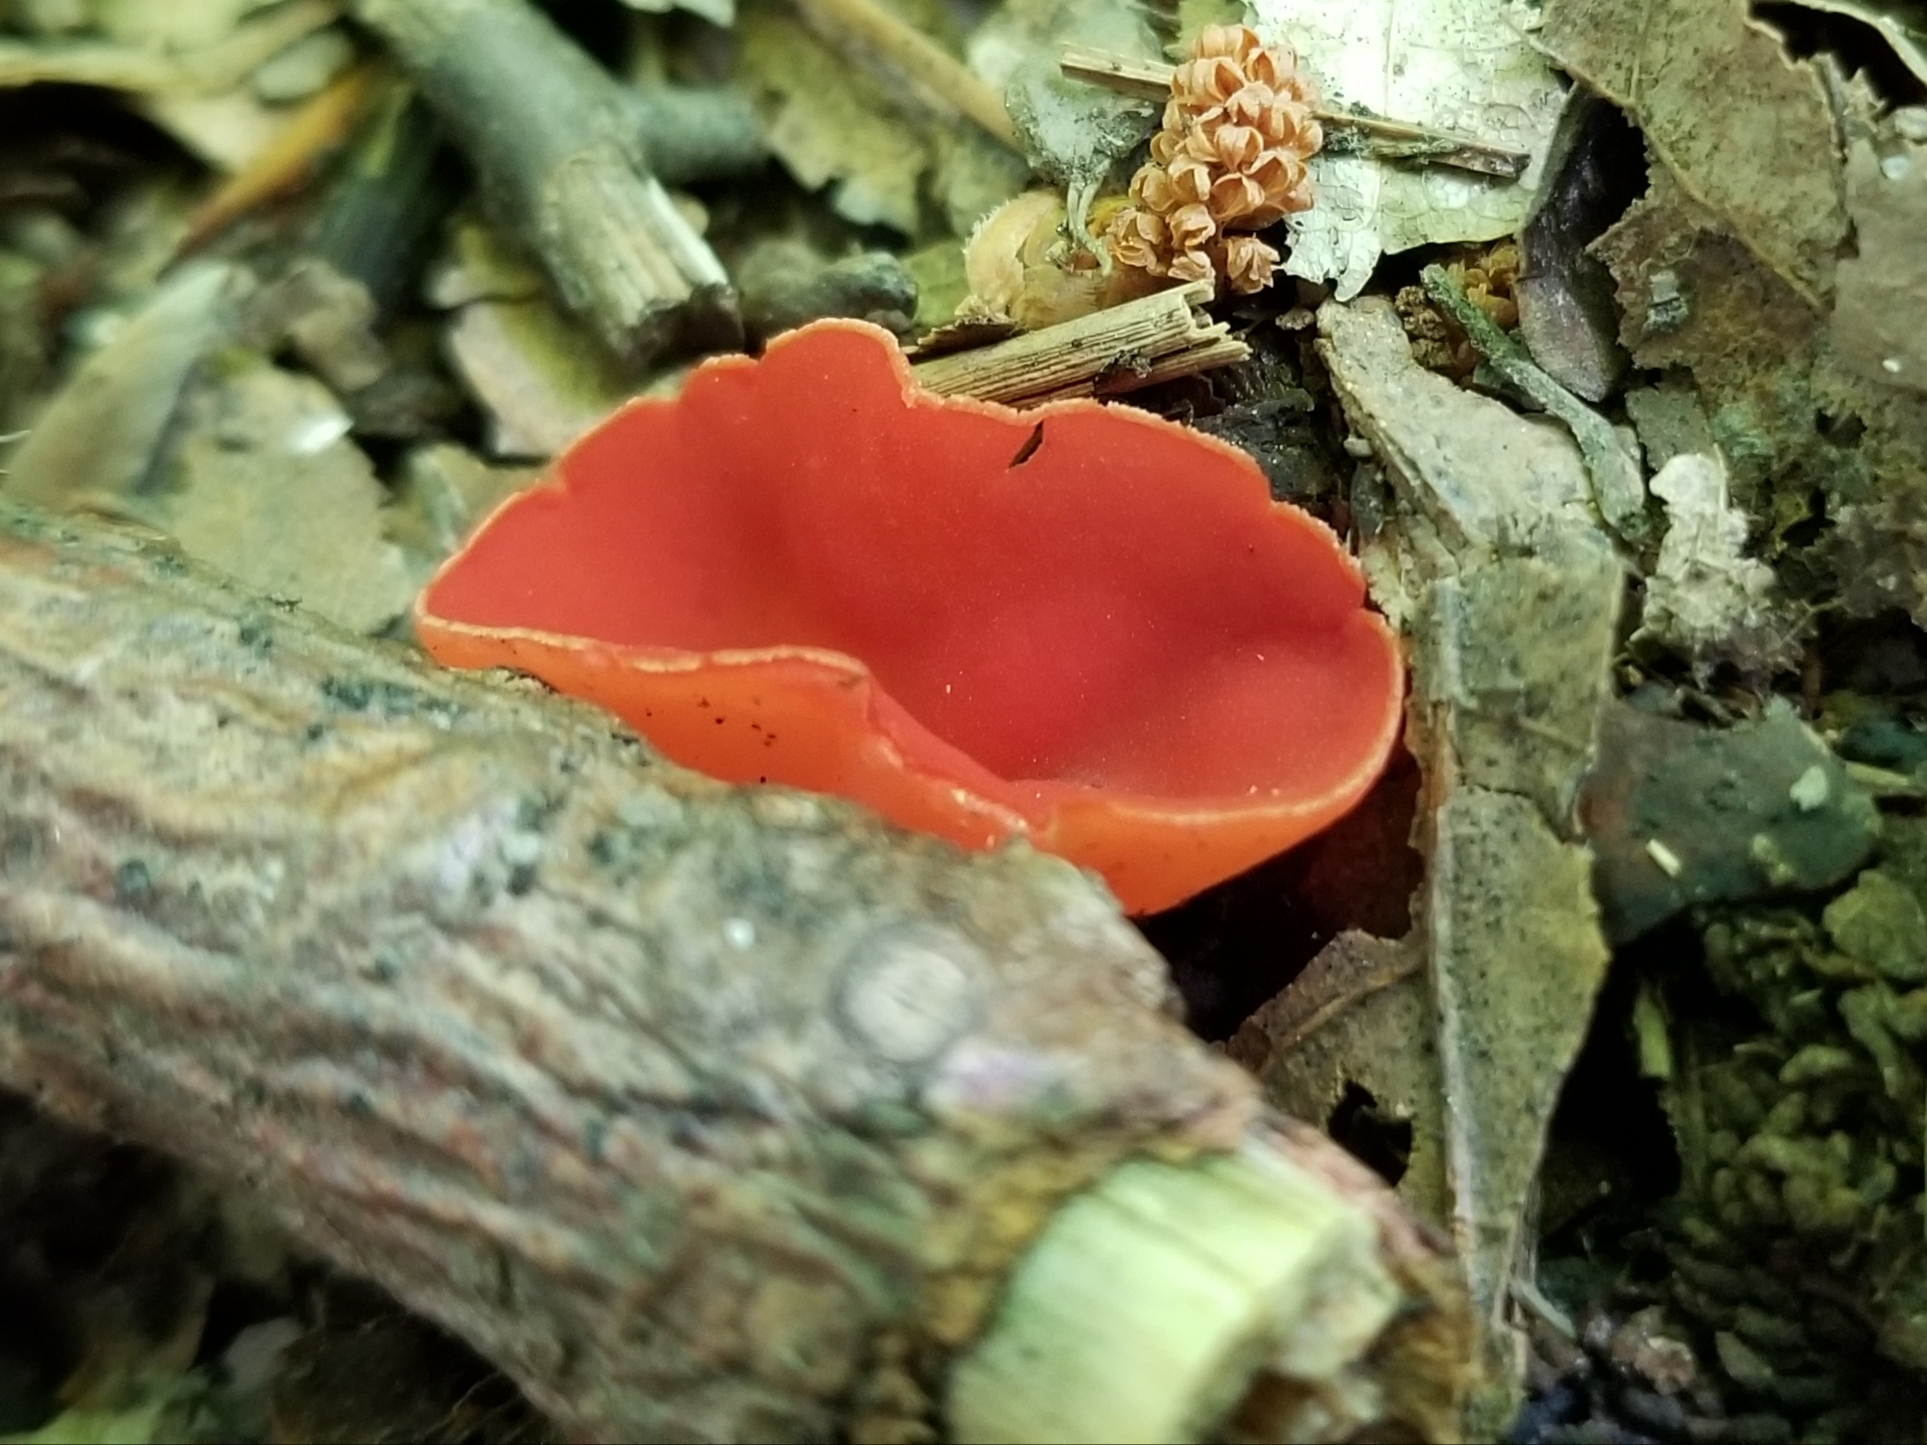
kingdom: Fungi
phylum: Ascomycota
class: Pezizomycetes
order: Pezizales
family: Sarcoscyphaceae
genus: Sarcoscypha
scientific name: Sarcoscypha occidentalis
